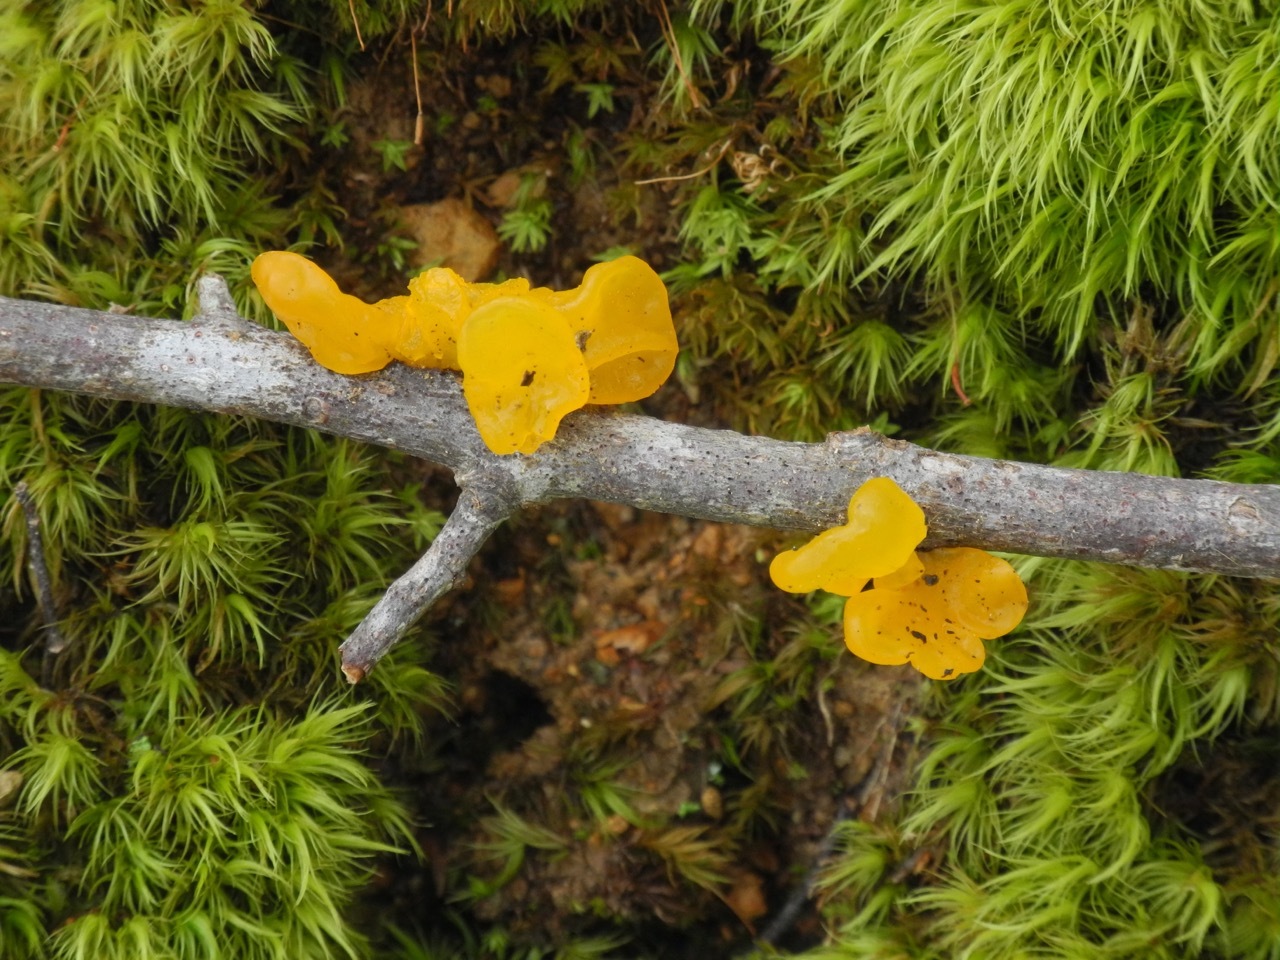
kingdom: Fungi
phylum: Basidiomycota
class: Tremellomycetes
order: Tremellales
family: Tremellaceae
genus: Tremella
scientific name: Tremella mesenterica
